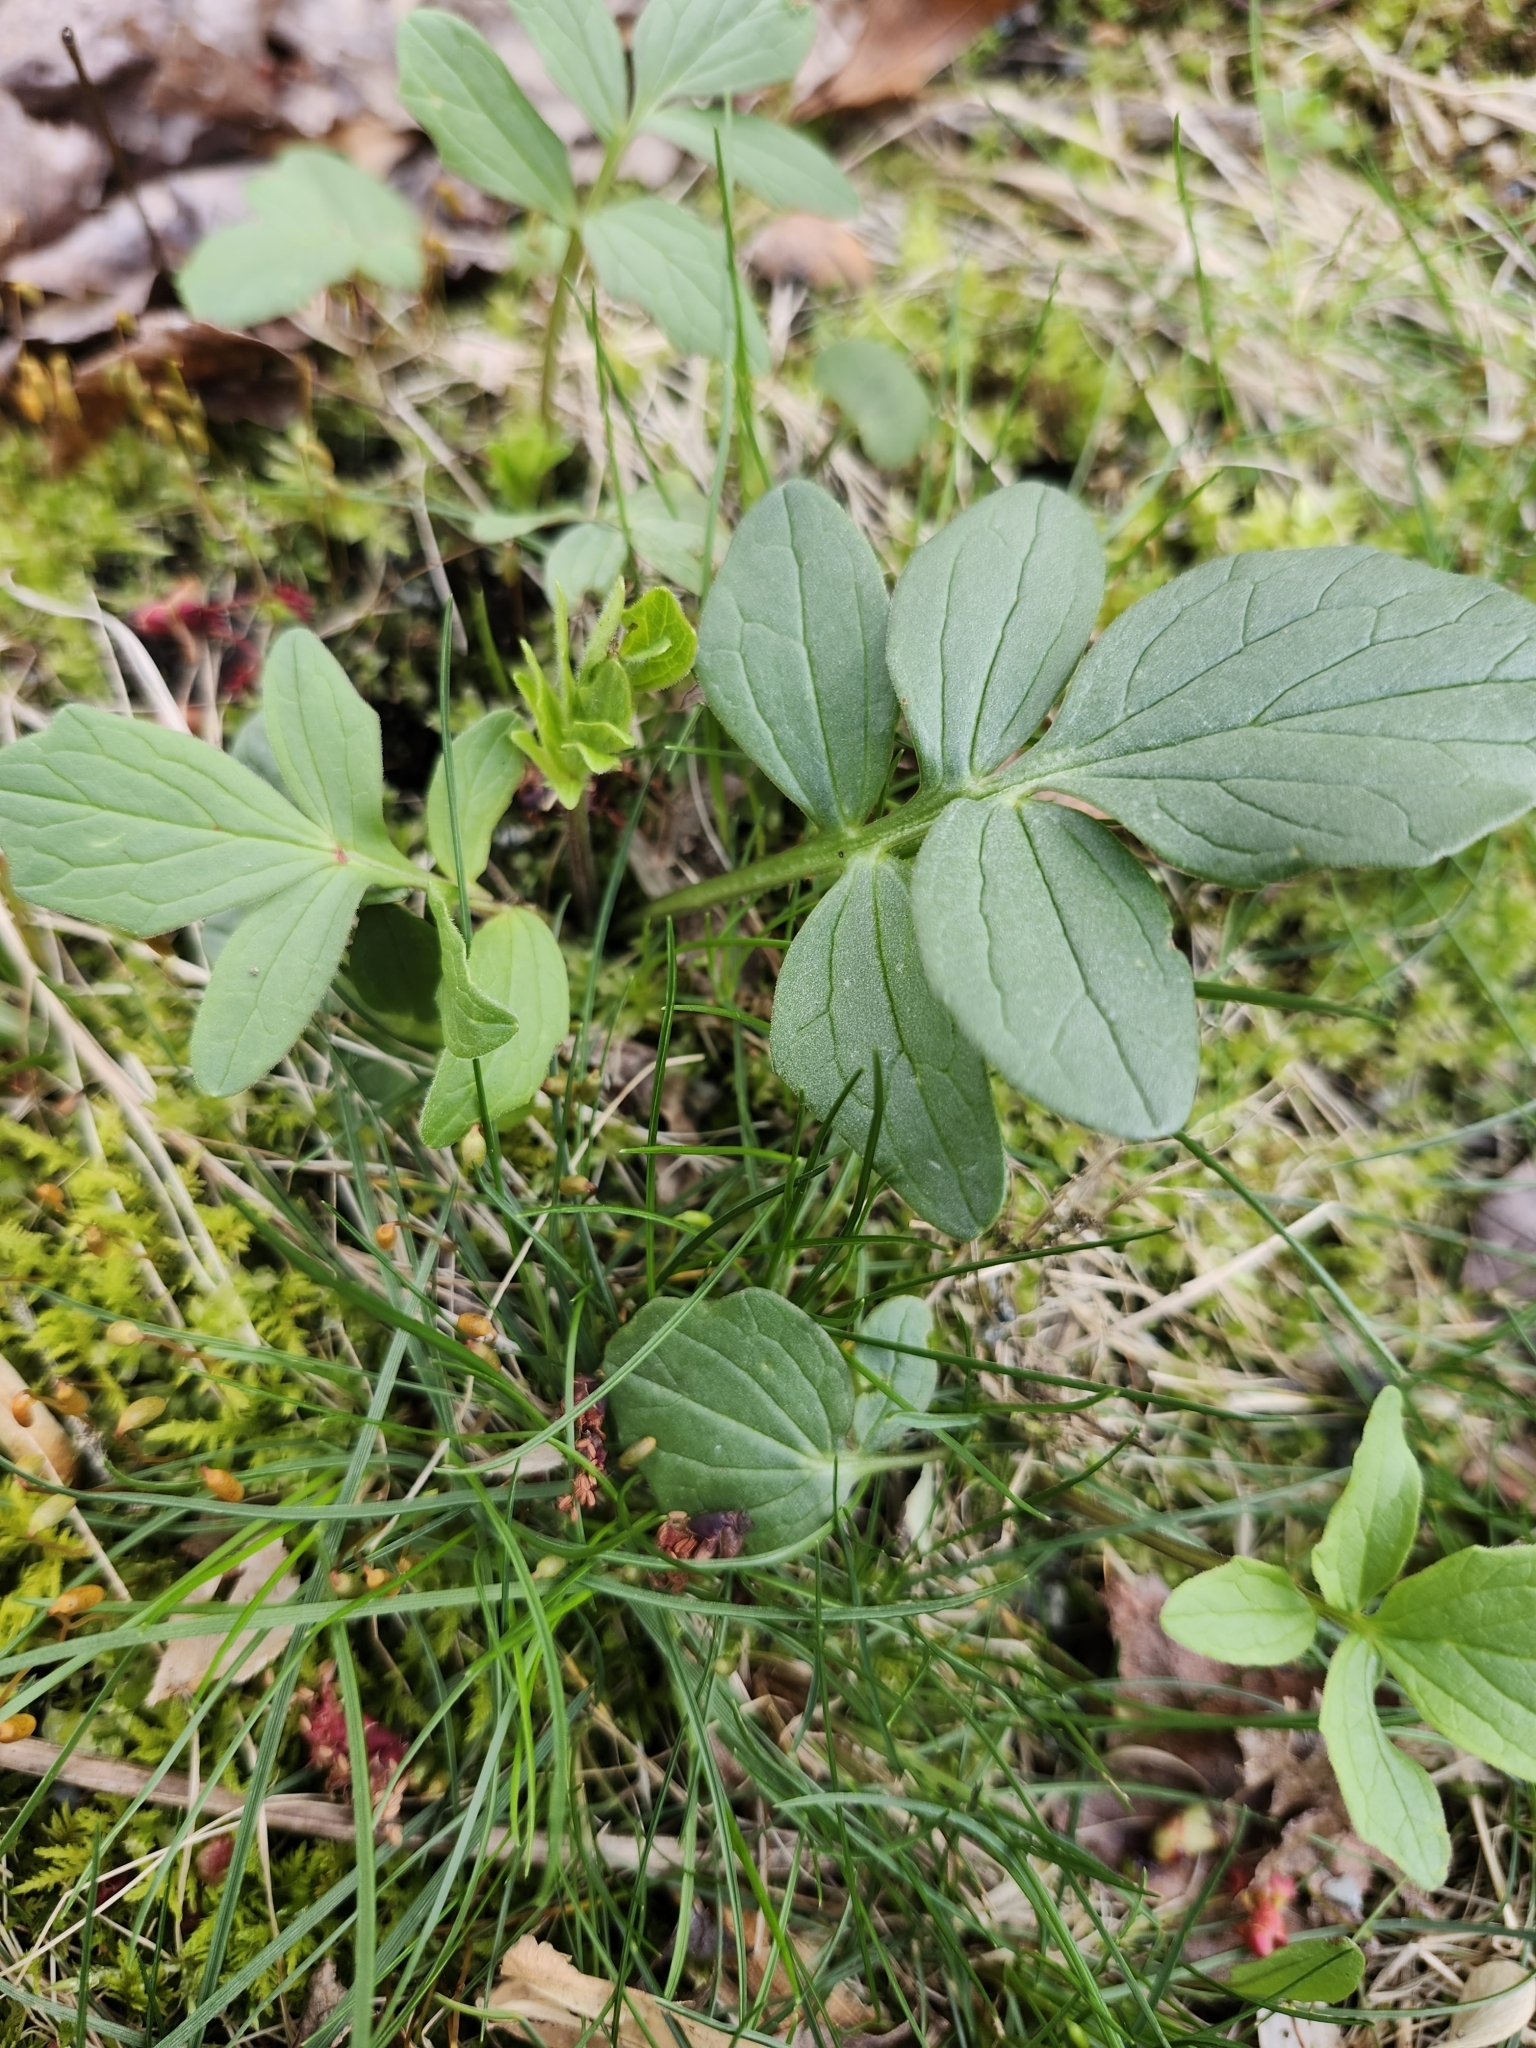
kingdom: Plantae
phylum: Tracheophyta
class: Magnoliopsida
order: Dipsacales
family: Caprifoliaceae
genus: Valeriana
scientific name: Valeriana officinalis
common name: Common valerian
